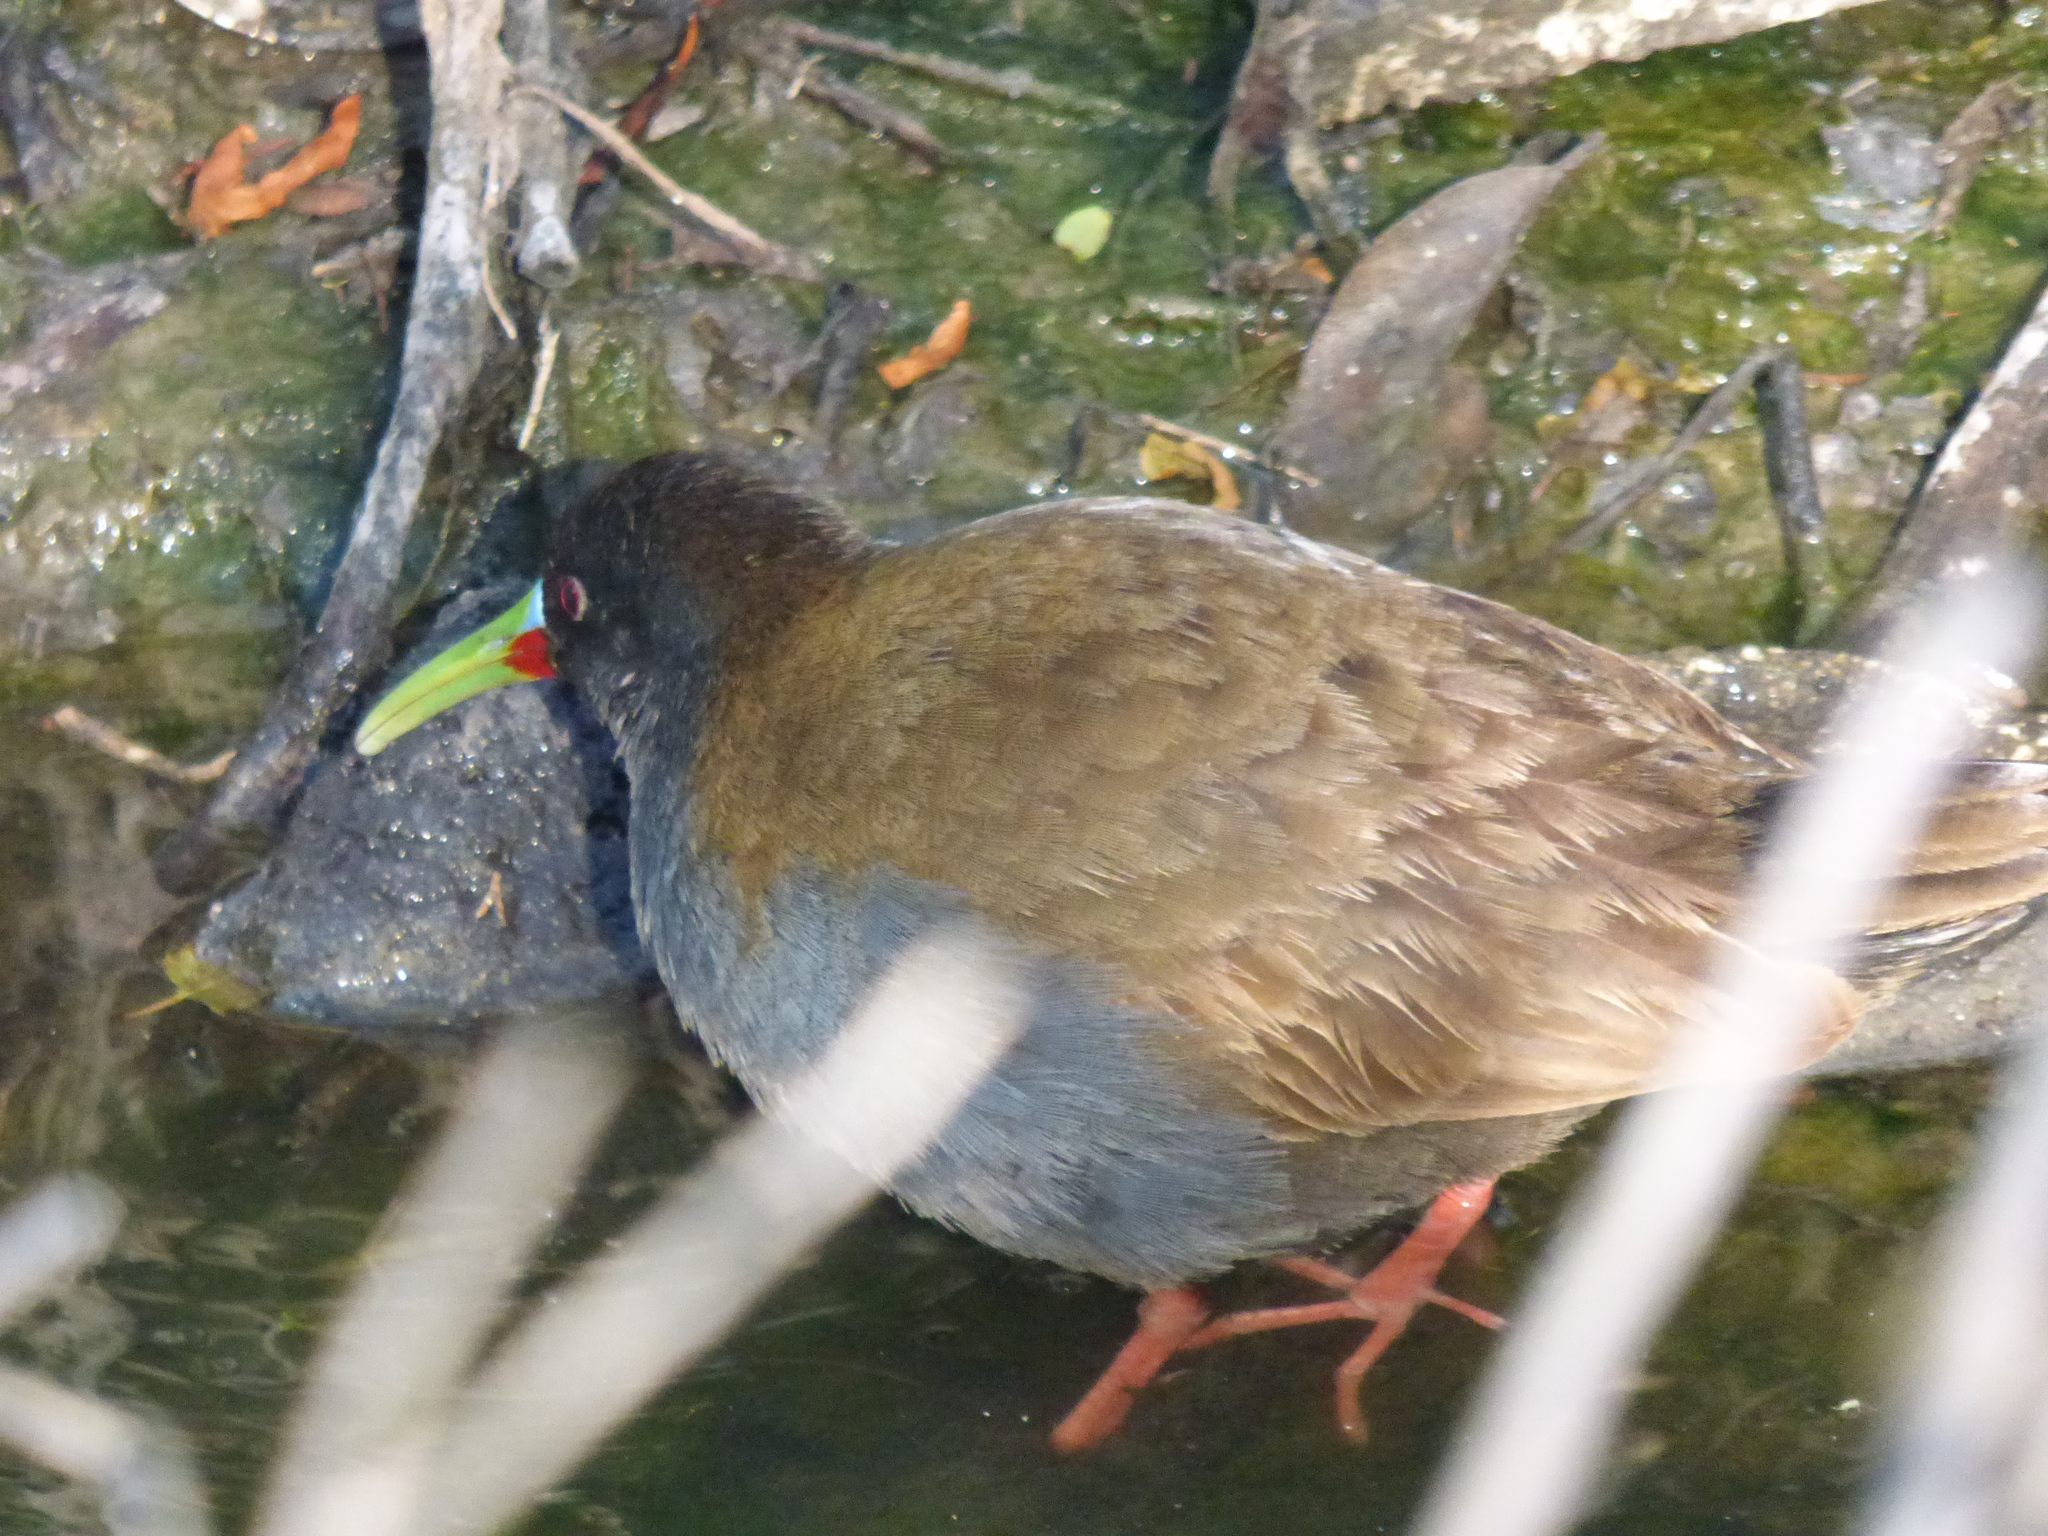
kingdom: Animalia
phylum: Chordata
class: Aves
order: Gruiformes
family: Rallidae
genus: Pardirallus
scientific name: Pardirallus sanguinolentus
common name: Plumbeous rail
